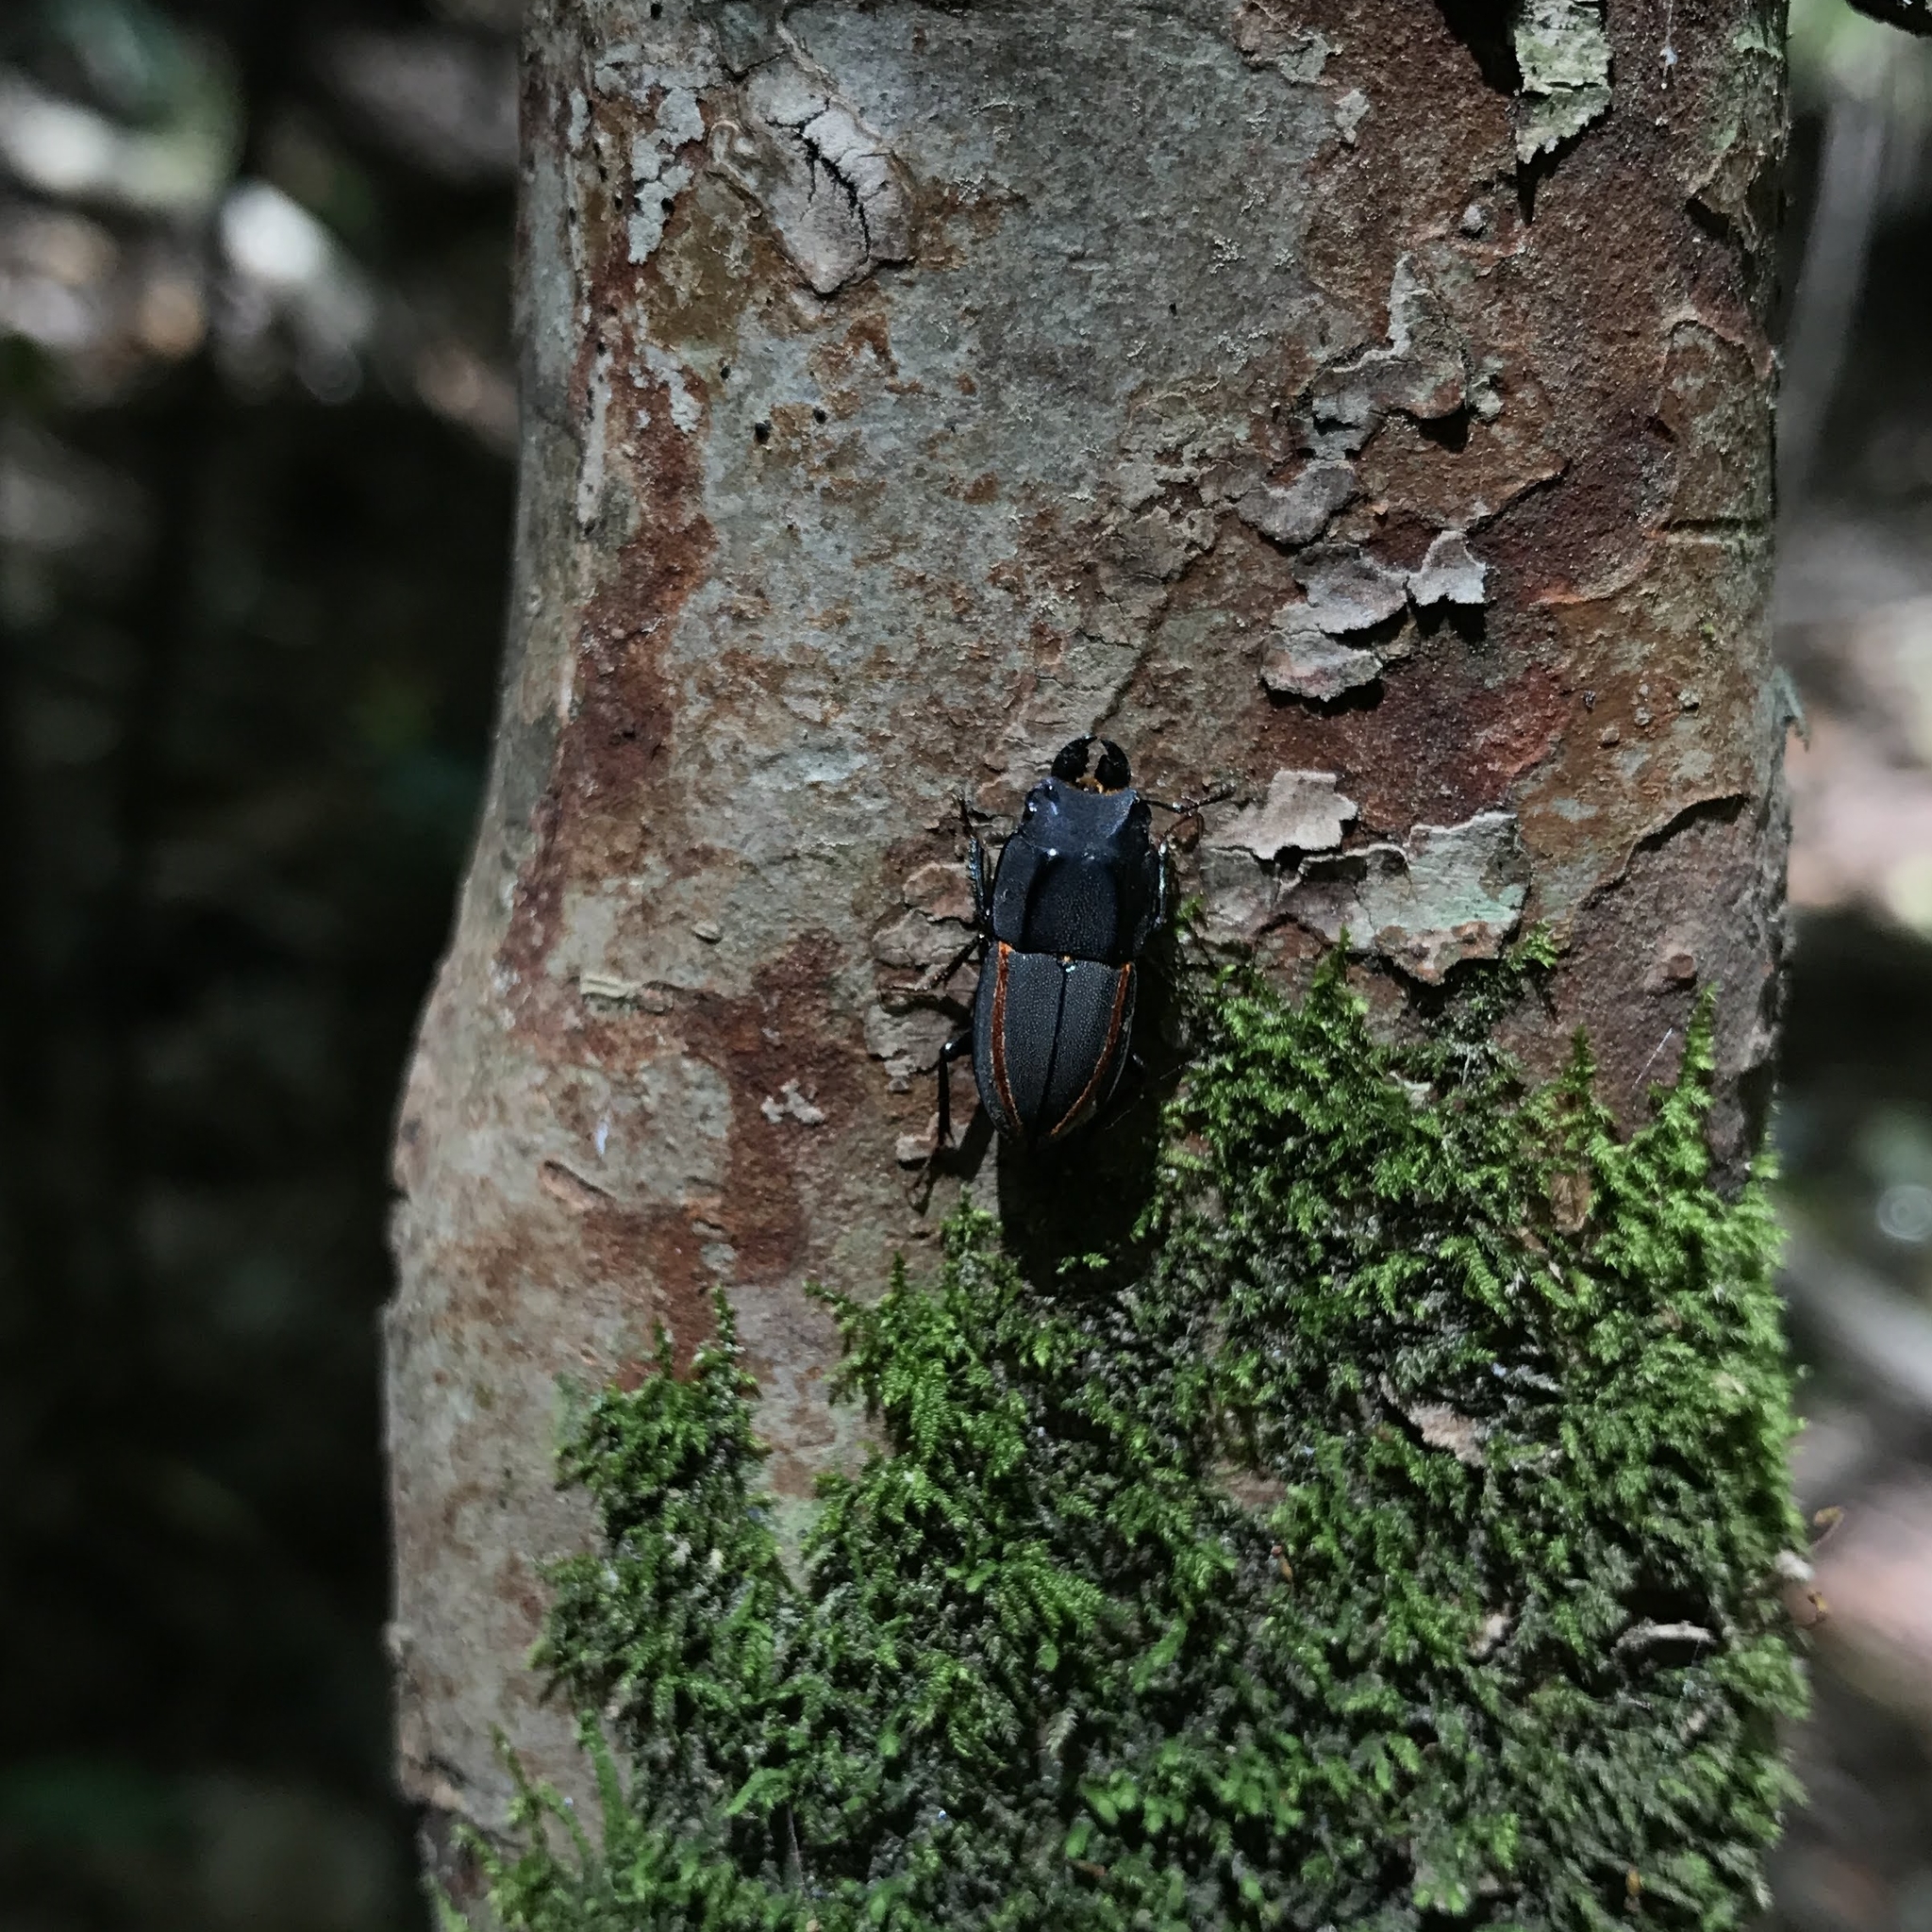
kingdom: Animalia
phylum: Arthropoda
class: Insecta
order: Coleoptera
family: Lucanidae
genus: Erichius
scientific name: Erichius vittatus
